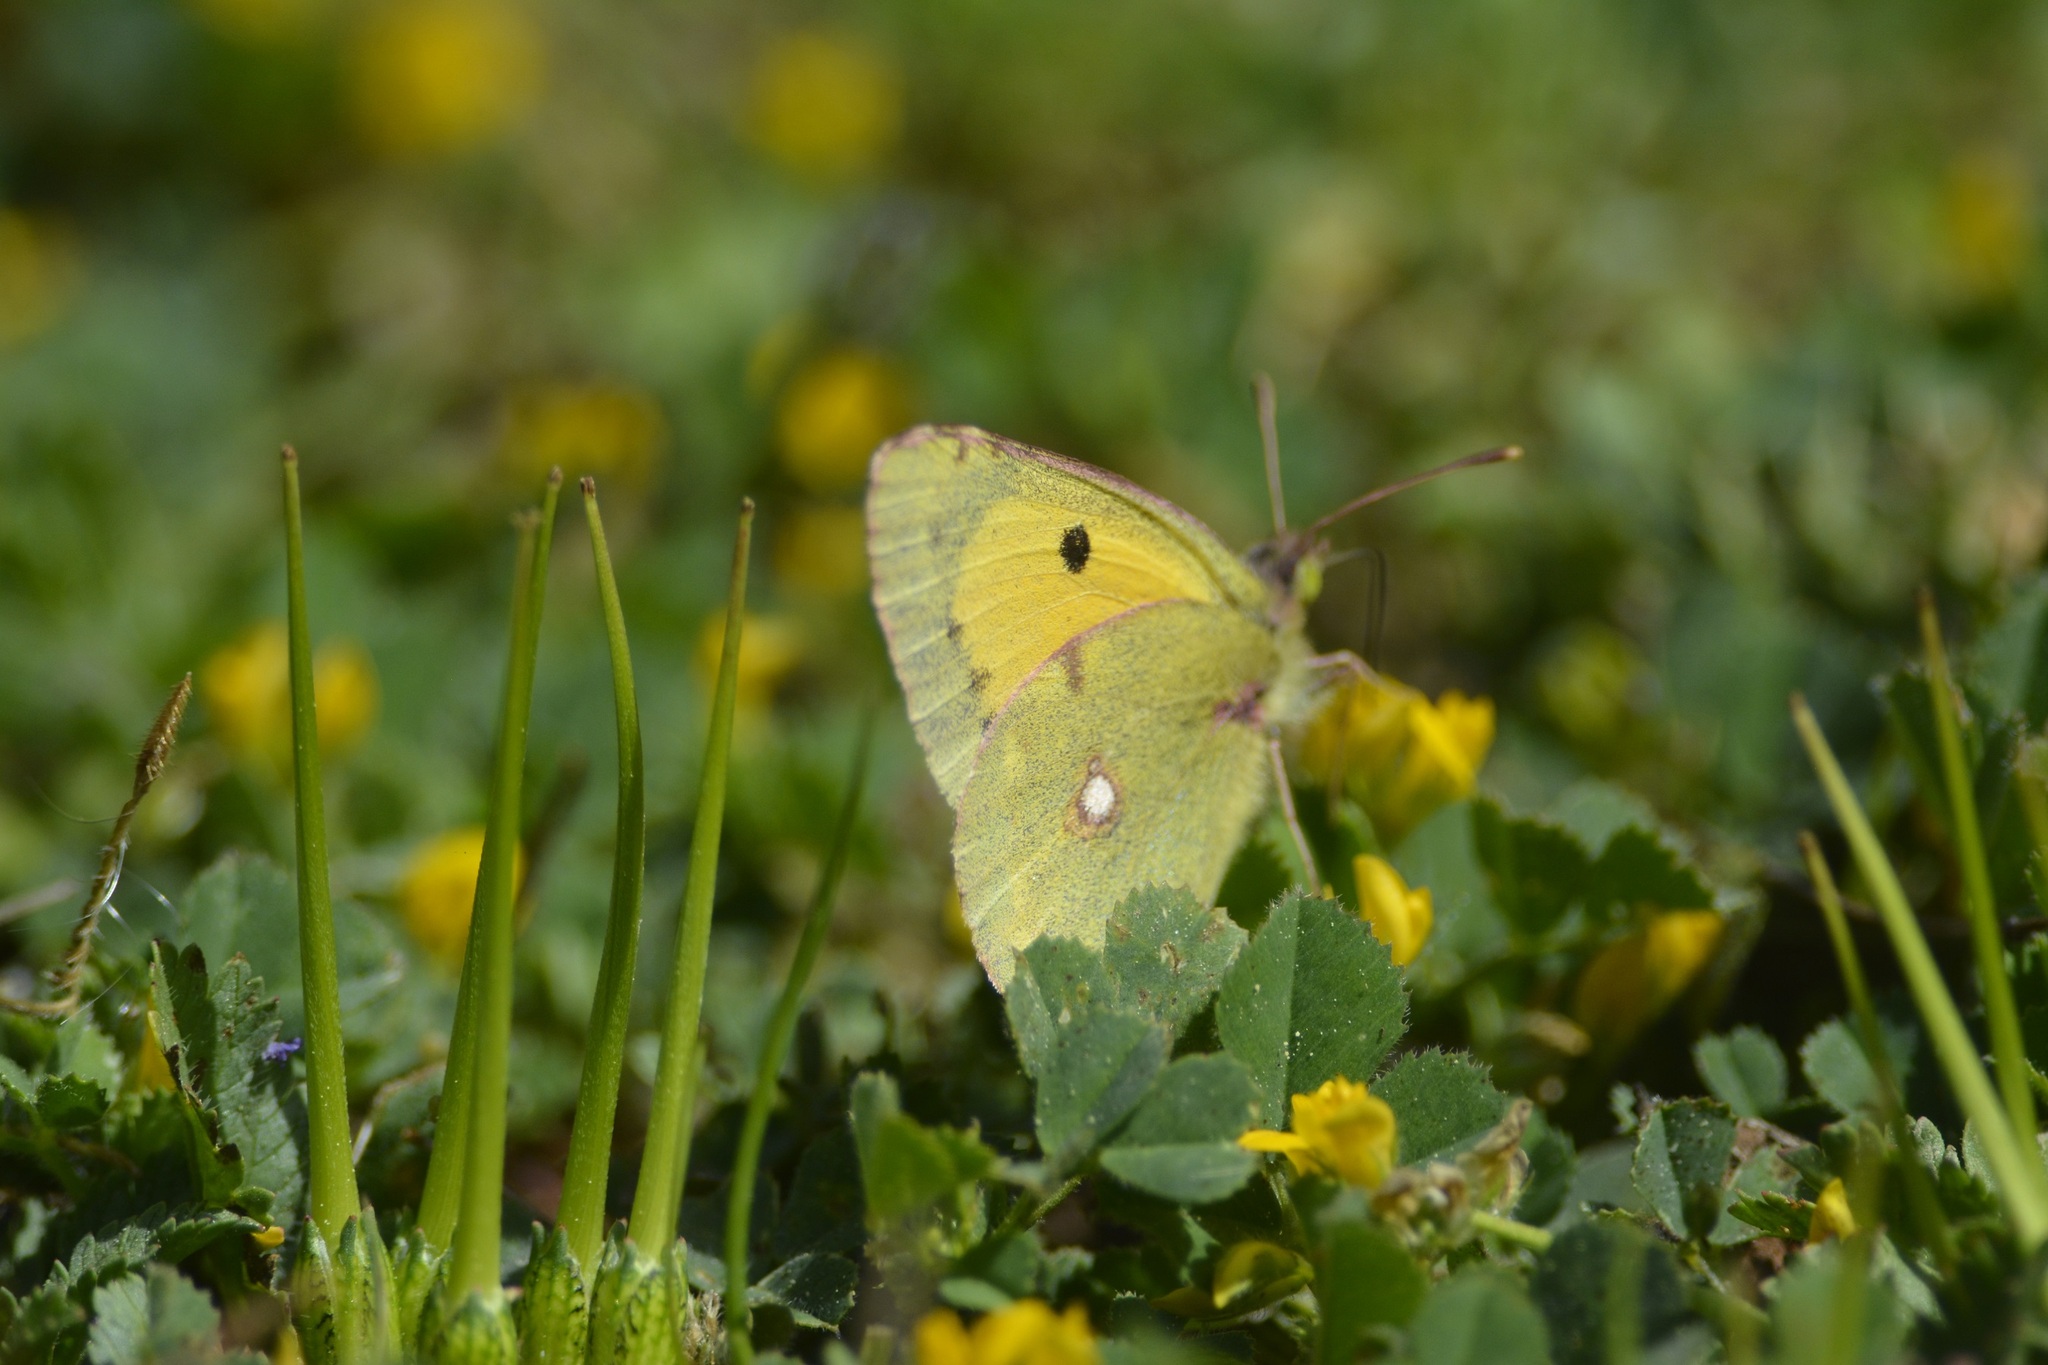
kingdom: Animalia
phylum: Arthropoda
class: Insecta
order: Lepidoptera
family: Pieridae
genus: Colias
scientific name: Colias croceus
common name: Clouded yellow
